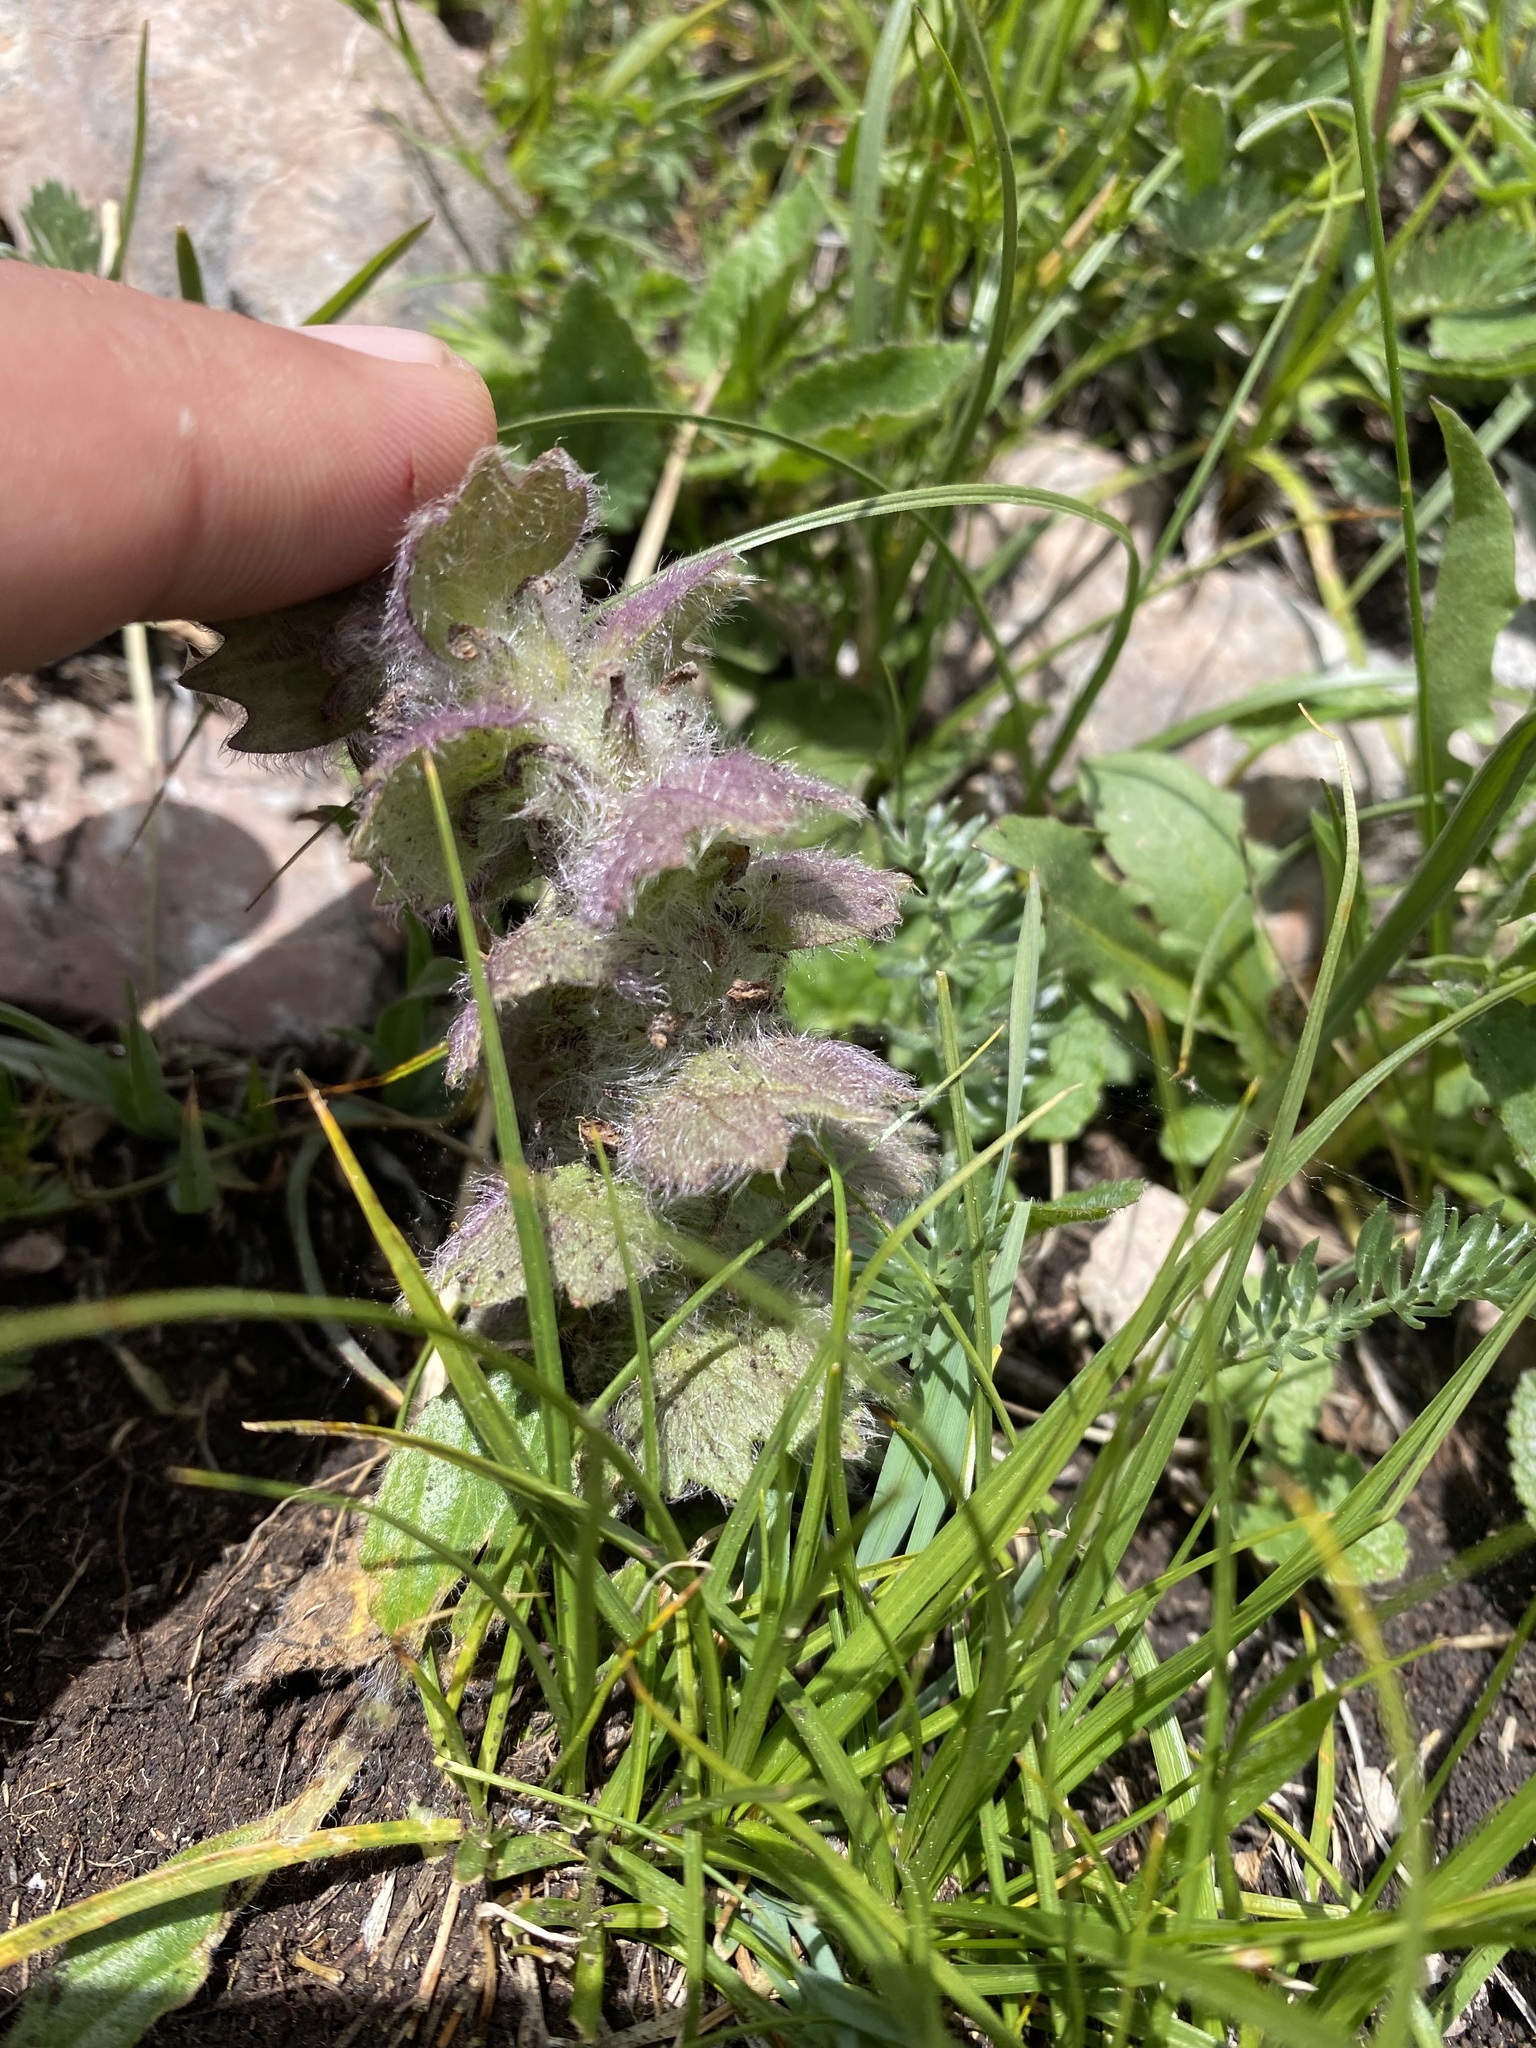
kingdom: Plantae
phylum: Tracheophyta
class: Magnoliopsida
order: Lamiales
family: Lamiaceae
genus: Ajuga
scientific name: Ajuga orientalis
